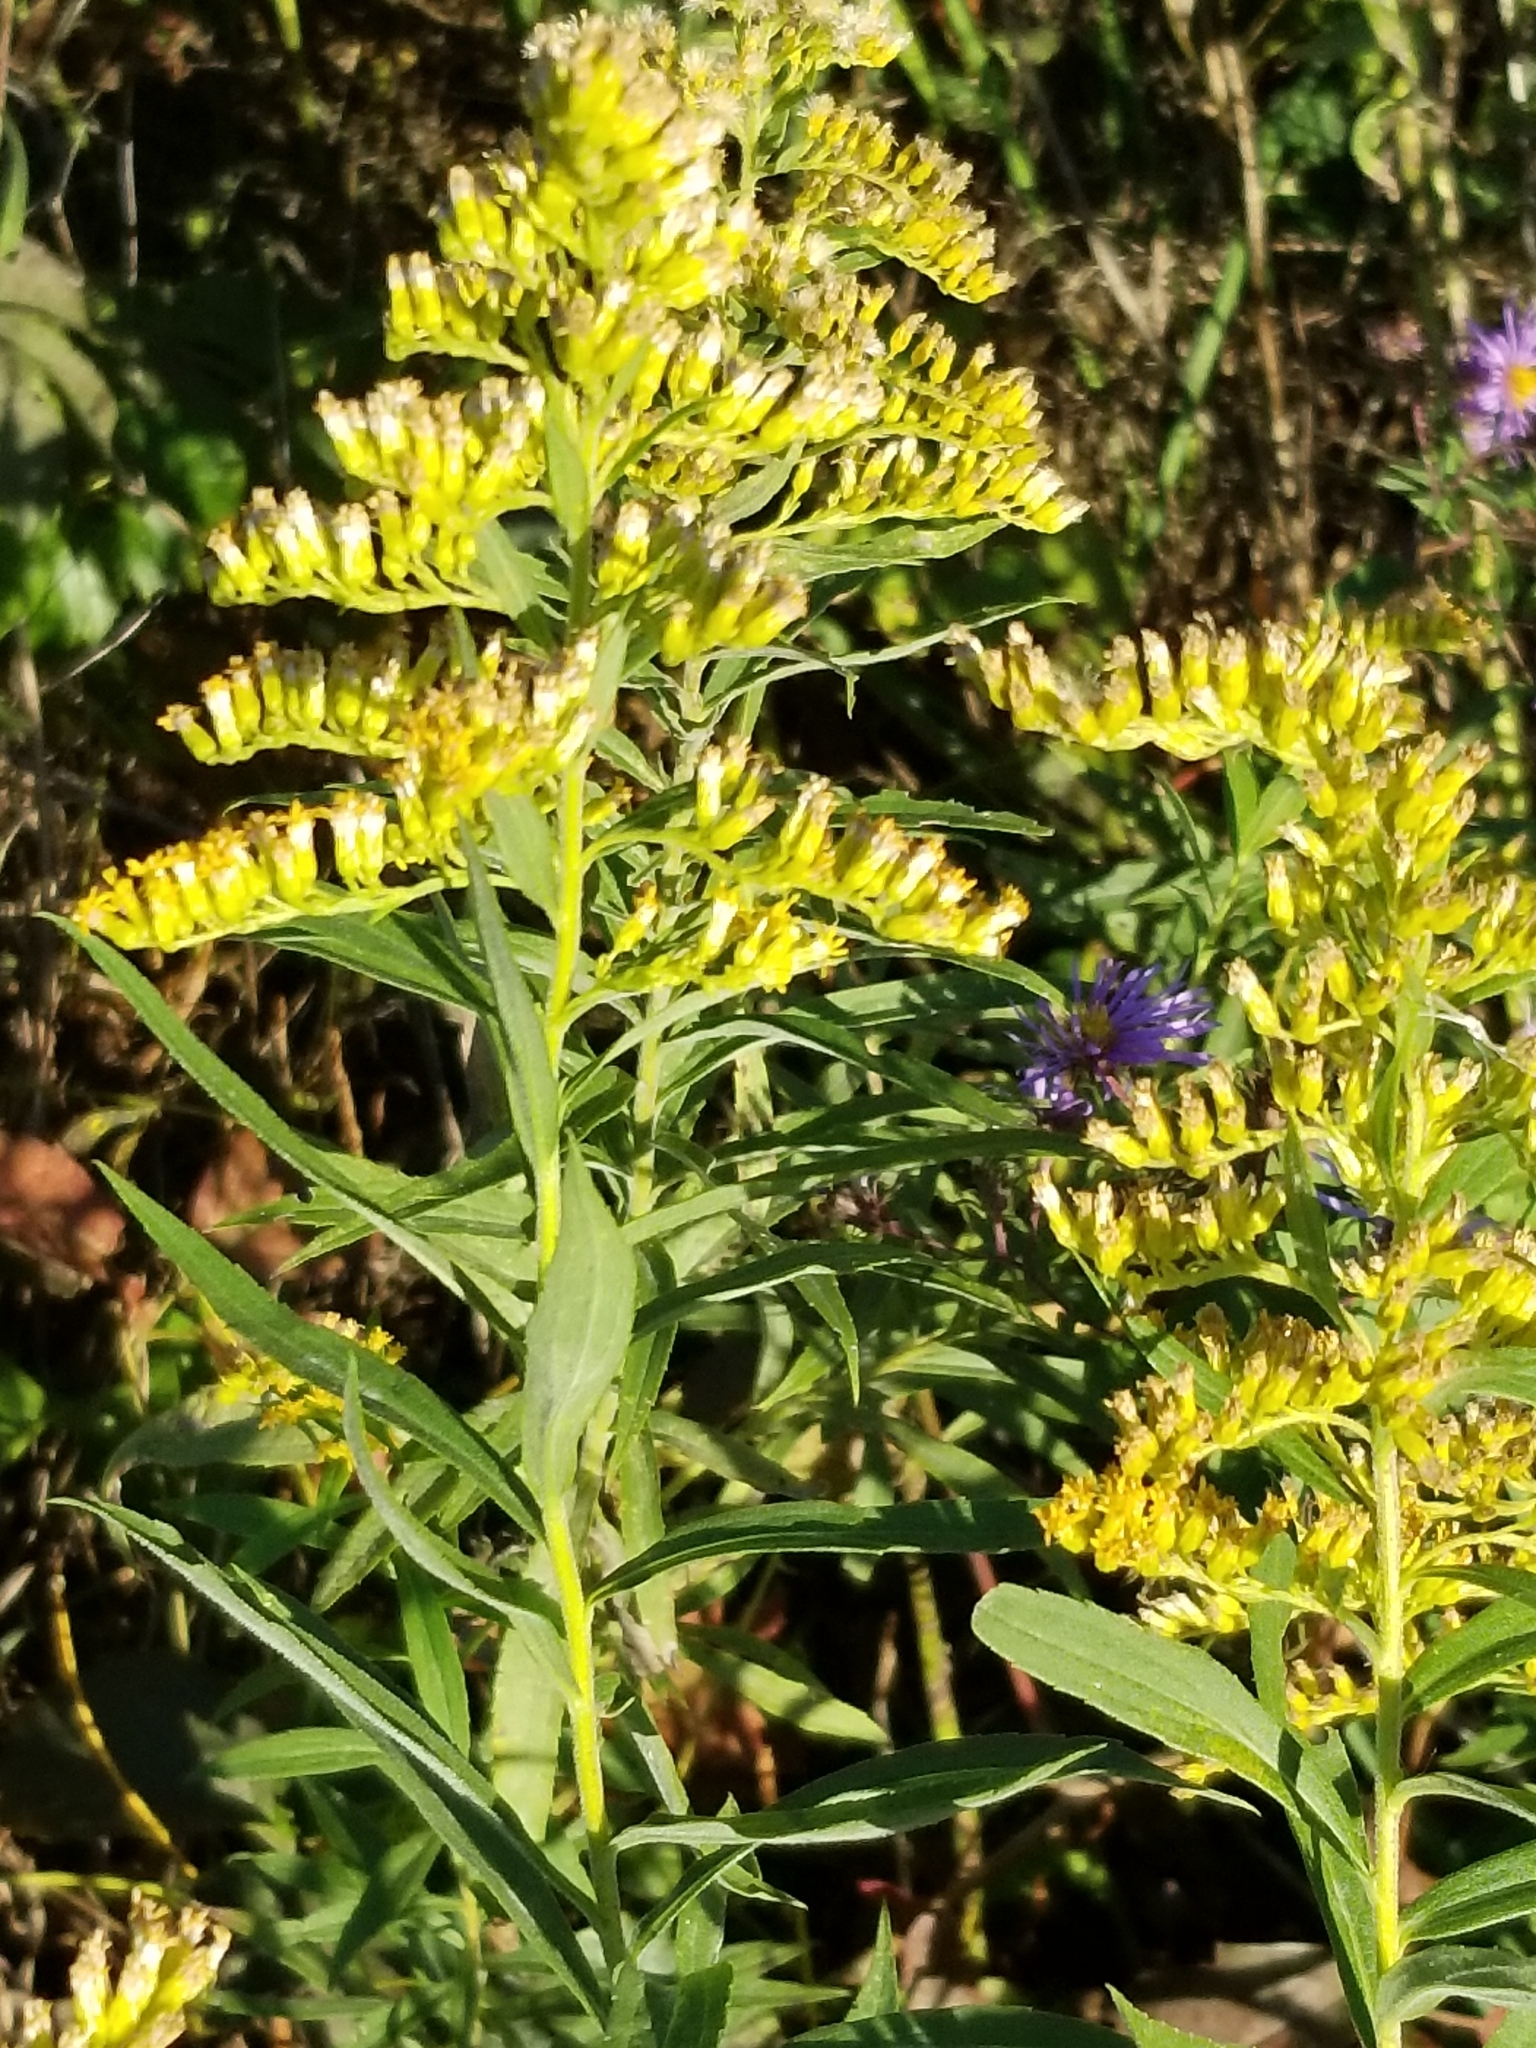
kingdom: Plantae
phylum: Tracheophyta
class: Magnoliopsida
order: Asterales
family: Asteraceae
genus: Solidago
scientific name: Solidago altissima
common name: Late goldenrod
